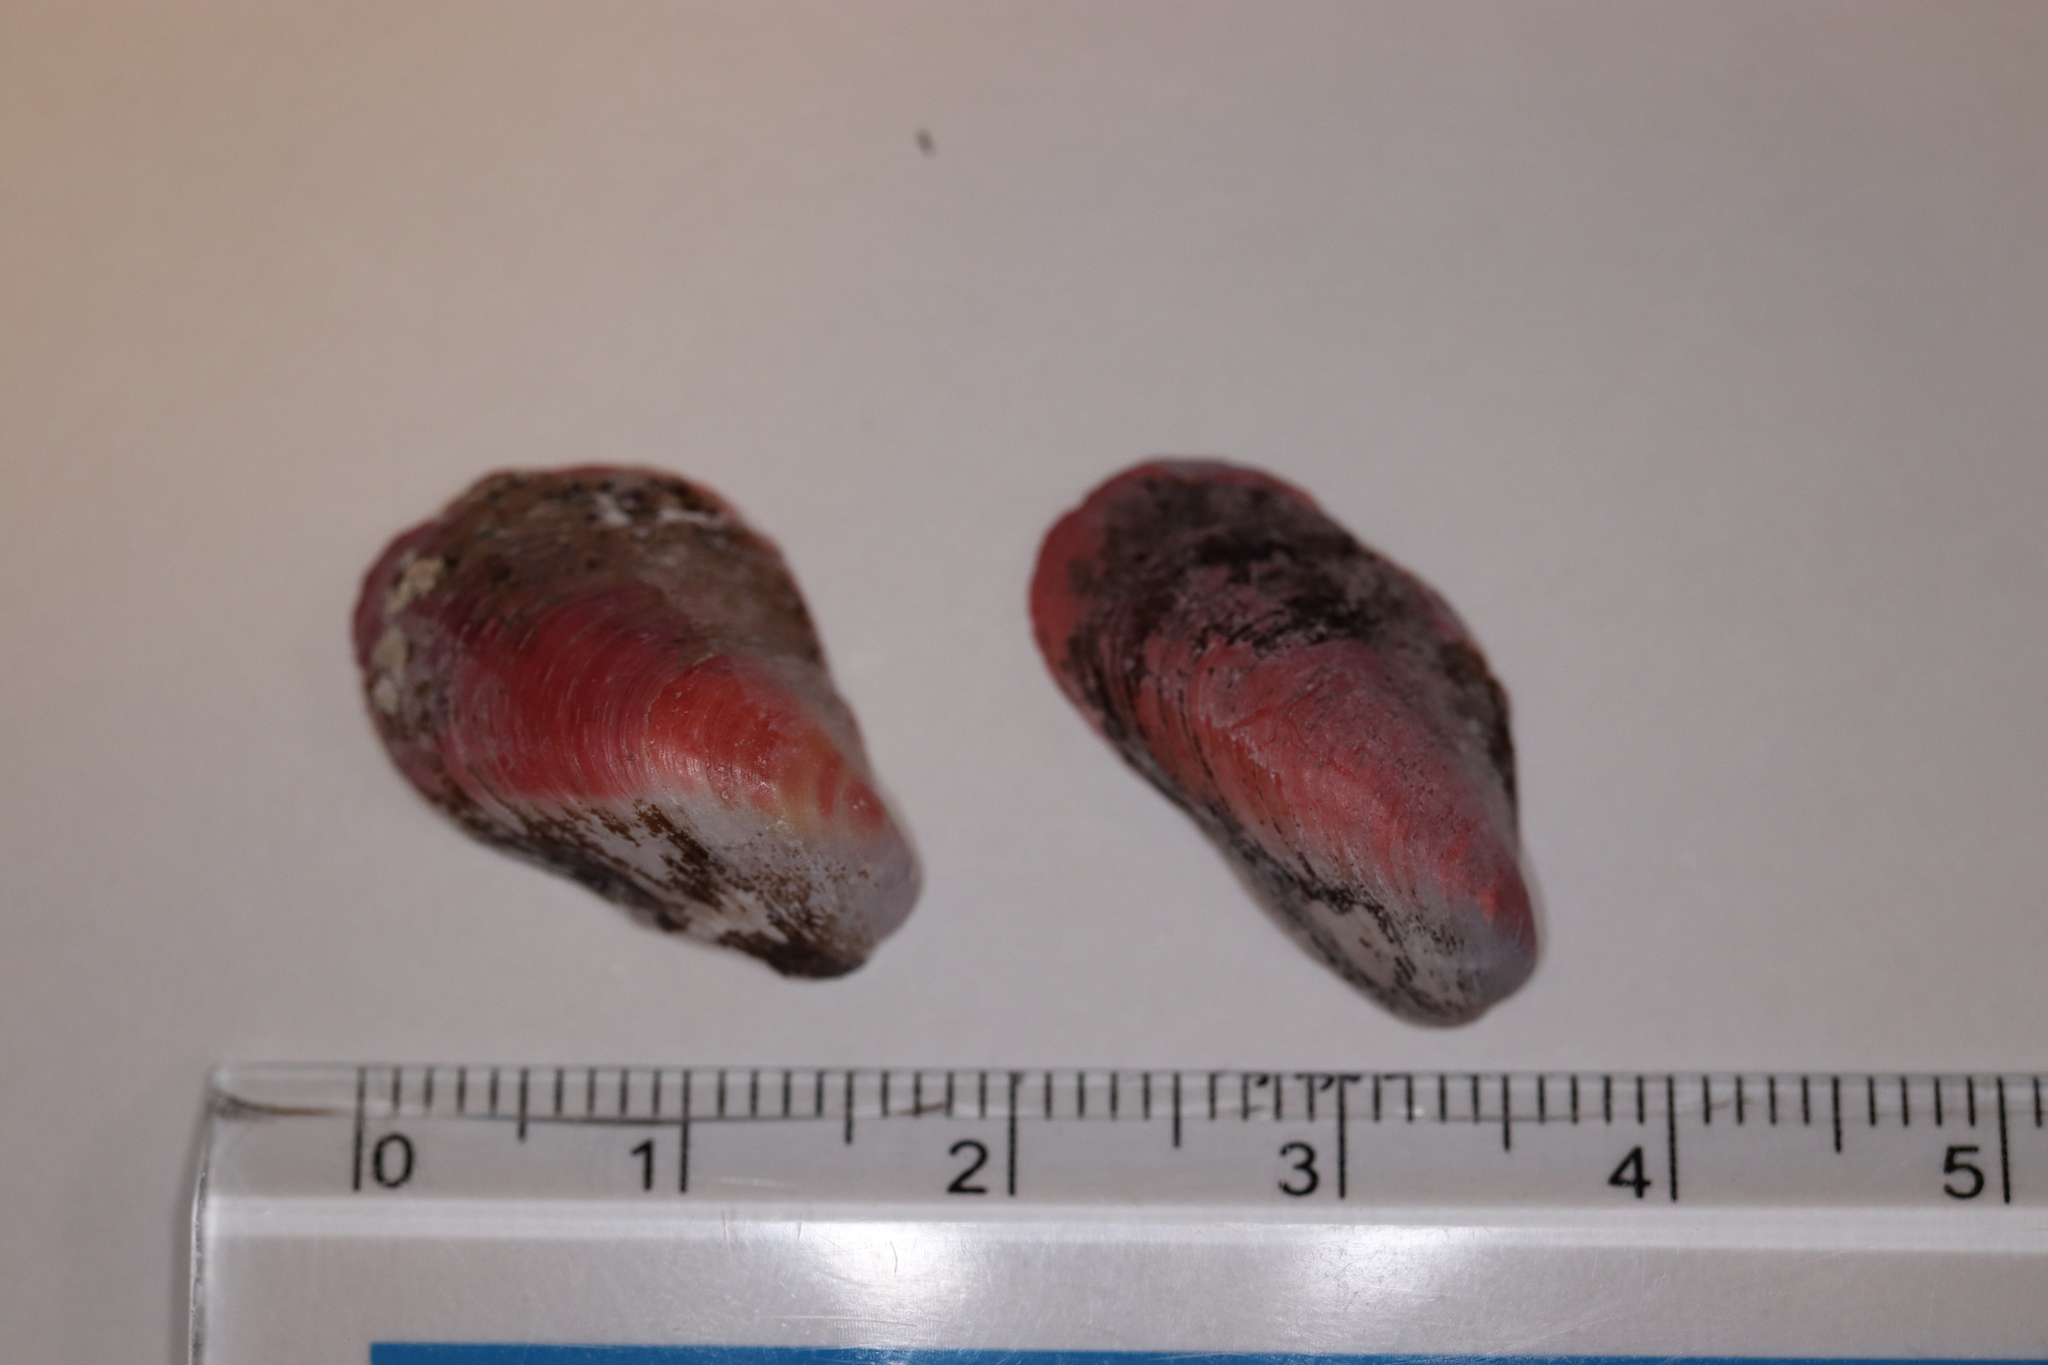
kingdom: Animalia
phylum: Mollusca
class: Bivalvia
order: Mytilida
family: Mytilidae
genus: Modiolus
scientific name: Modiolus nipponicus
